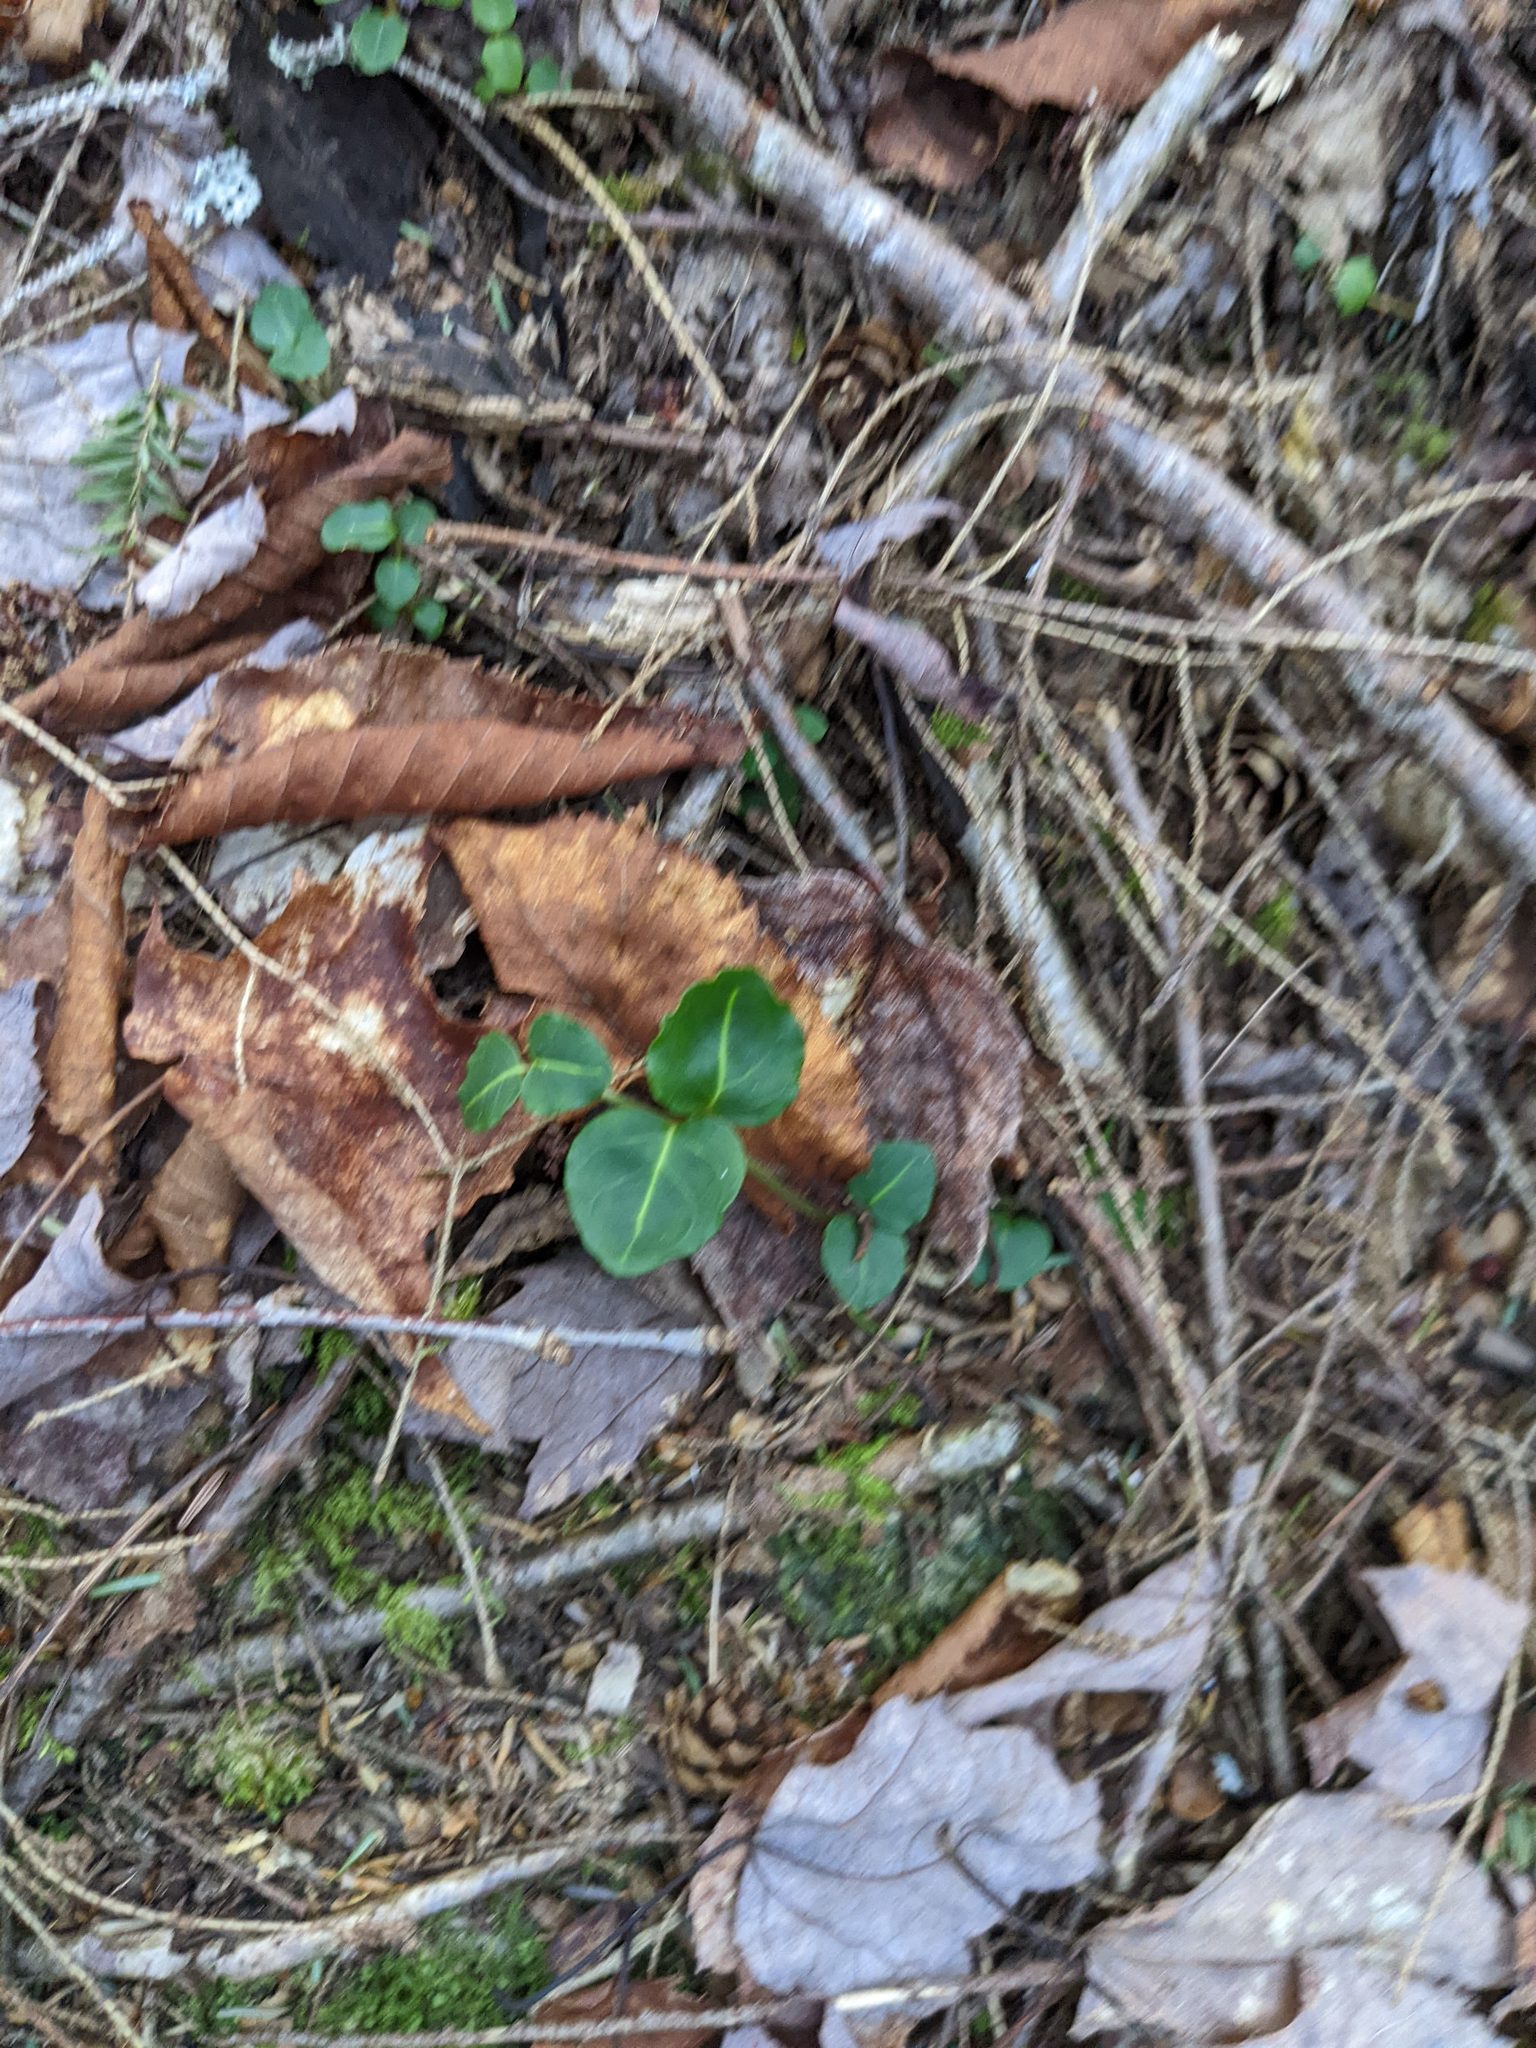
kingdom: Plantae
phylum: Tracheophyta
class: Magnoliopsida
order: Gentianales
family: Rubiaceae
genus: Mitchella
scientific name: Mitchella repens
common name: Partridge-berry
